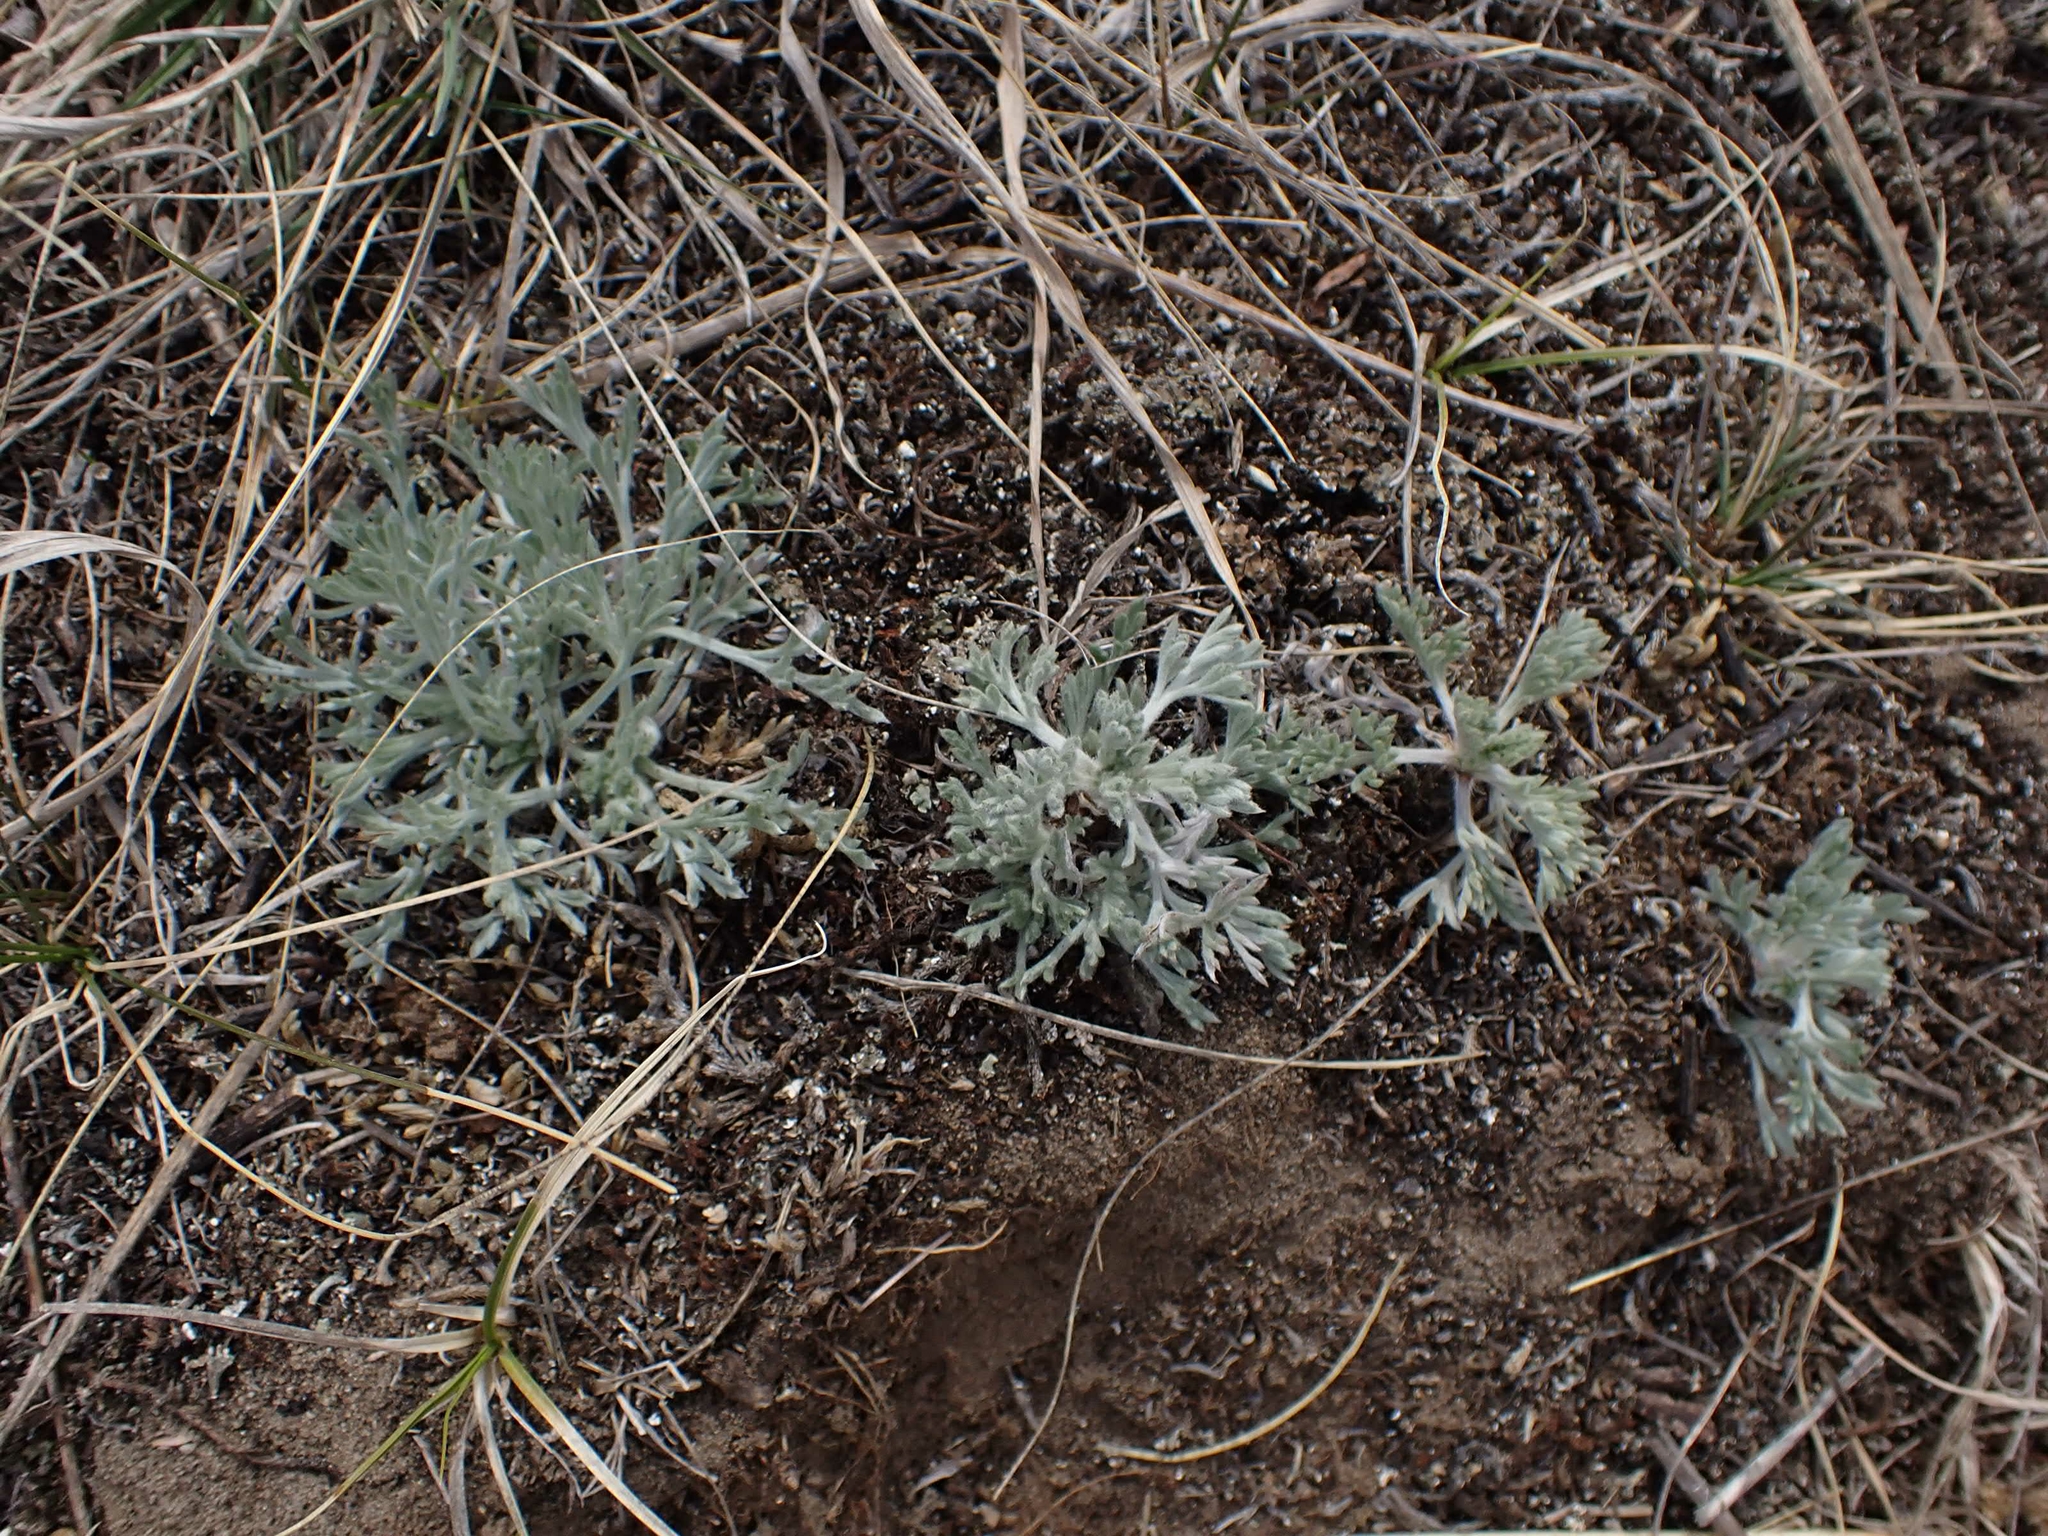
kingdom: Plantae
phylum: Tracheophyta
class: Magnoliopsida
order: Asterales
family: Asteraceae
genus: Artemisia
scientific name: Artemisia campestris
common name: Field wormwood
